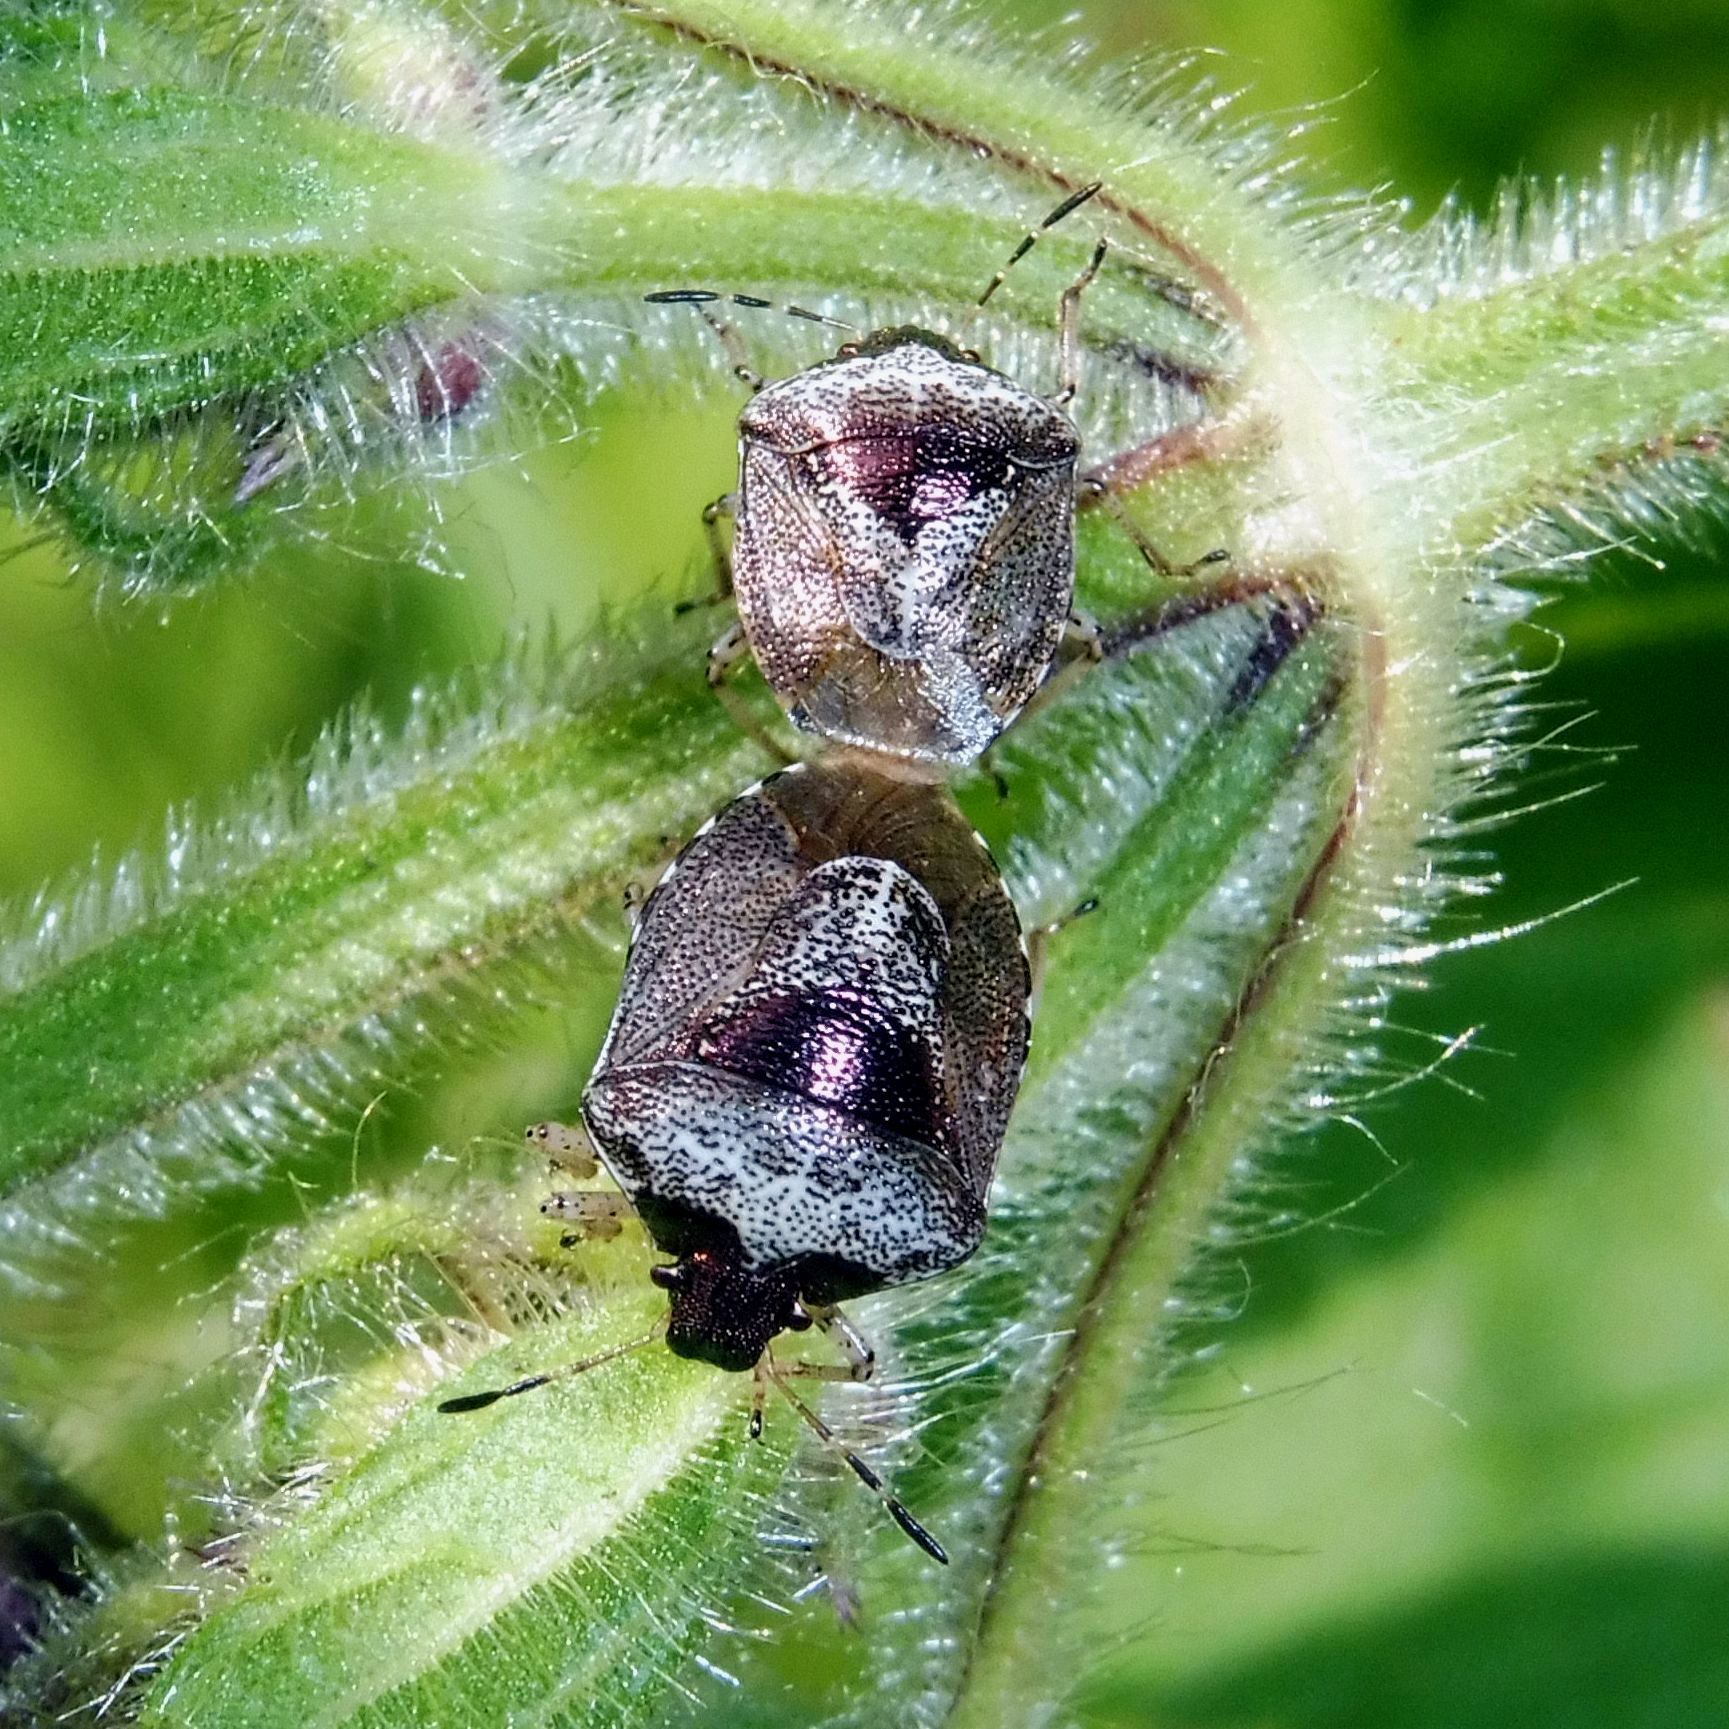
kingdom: Animalia
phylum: Arthropoda
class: Insecta
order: Hemiptera
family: Pentatomidae
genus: Eysarcoris
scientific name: Eysarcoris venustissimus
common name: Woundwort shieldbug
